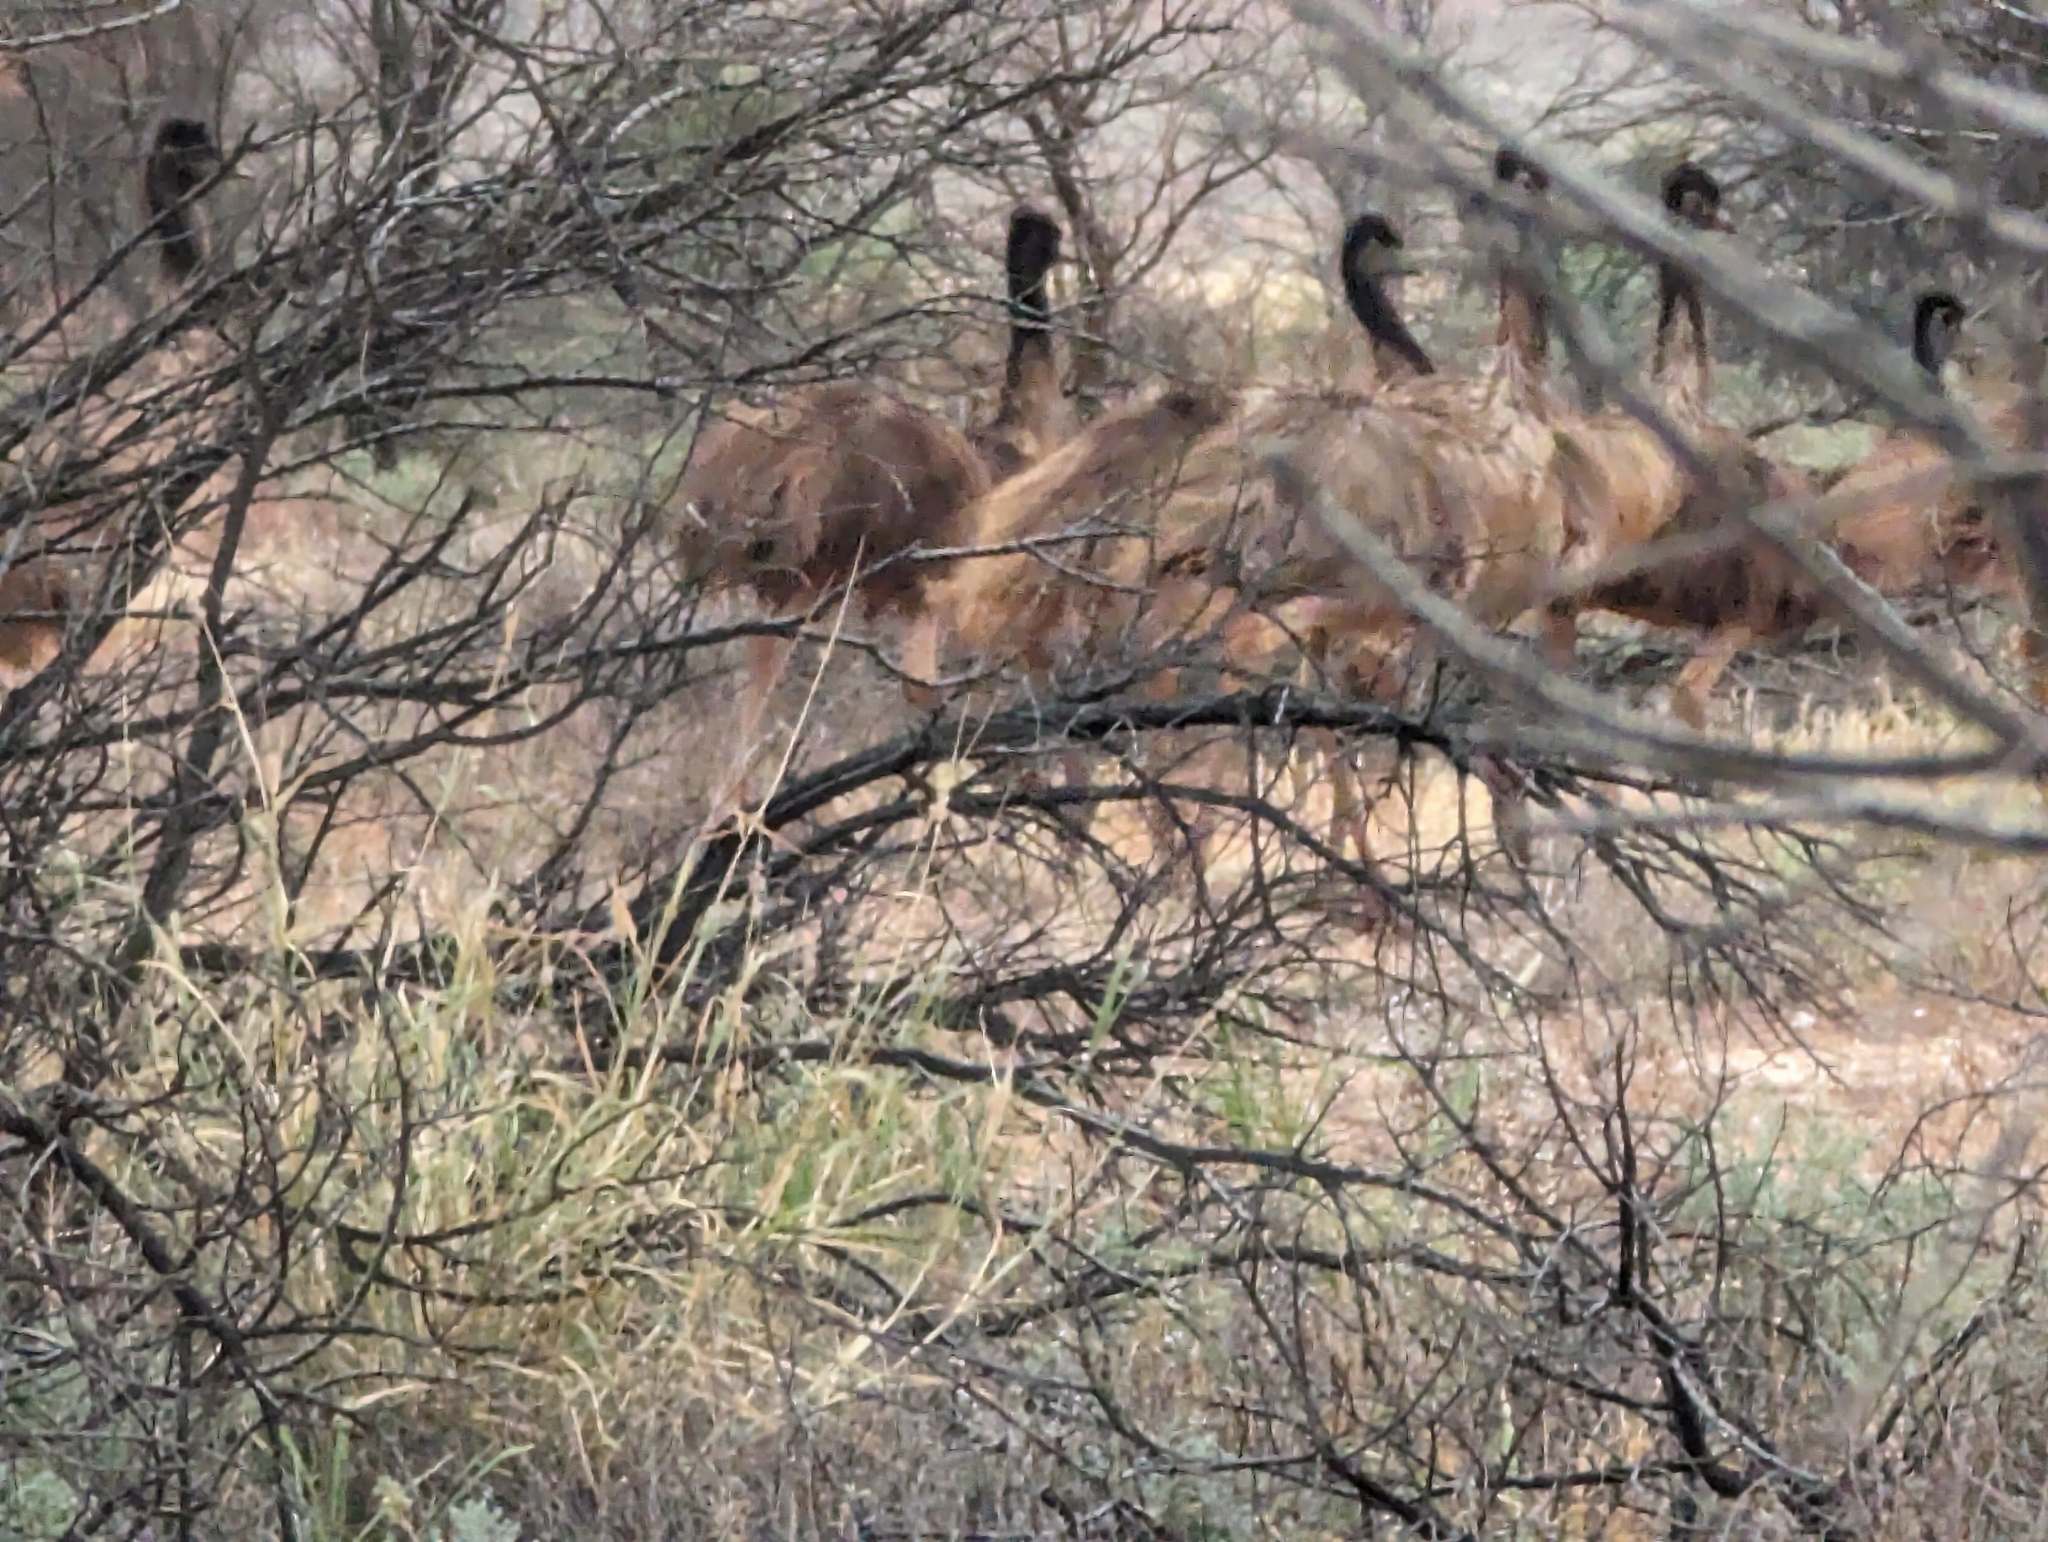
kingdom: Animalia
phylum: Chordata
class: Aves
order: Casuariiformes
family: Dromaiidae
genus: Dromaius
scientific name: Dromaius novaehollandiae
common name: Emu
